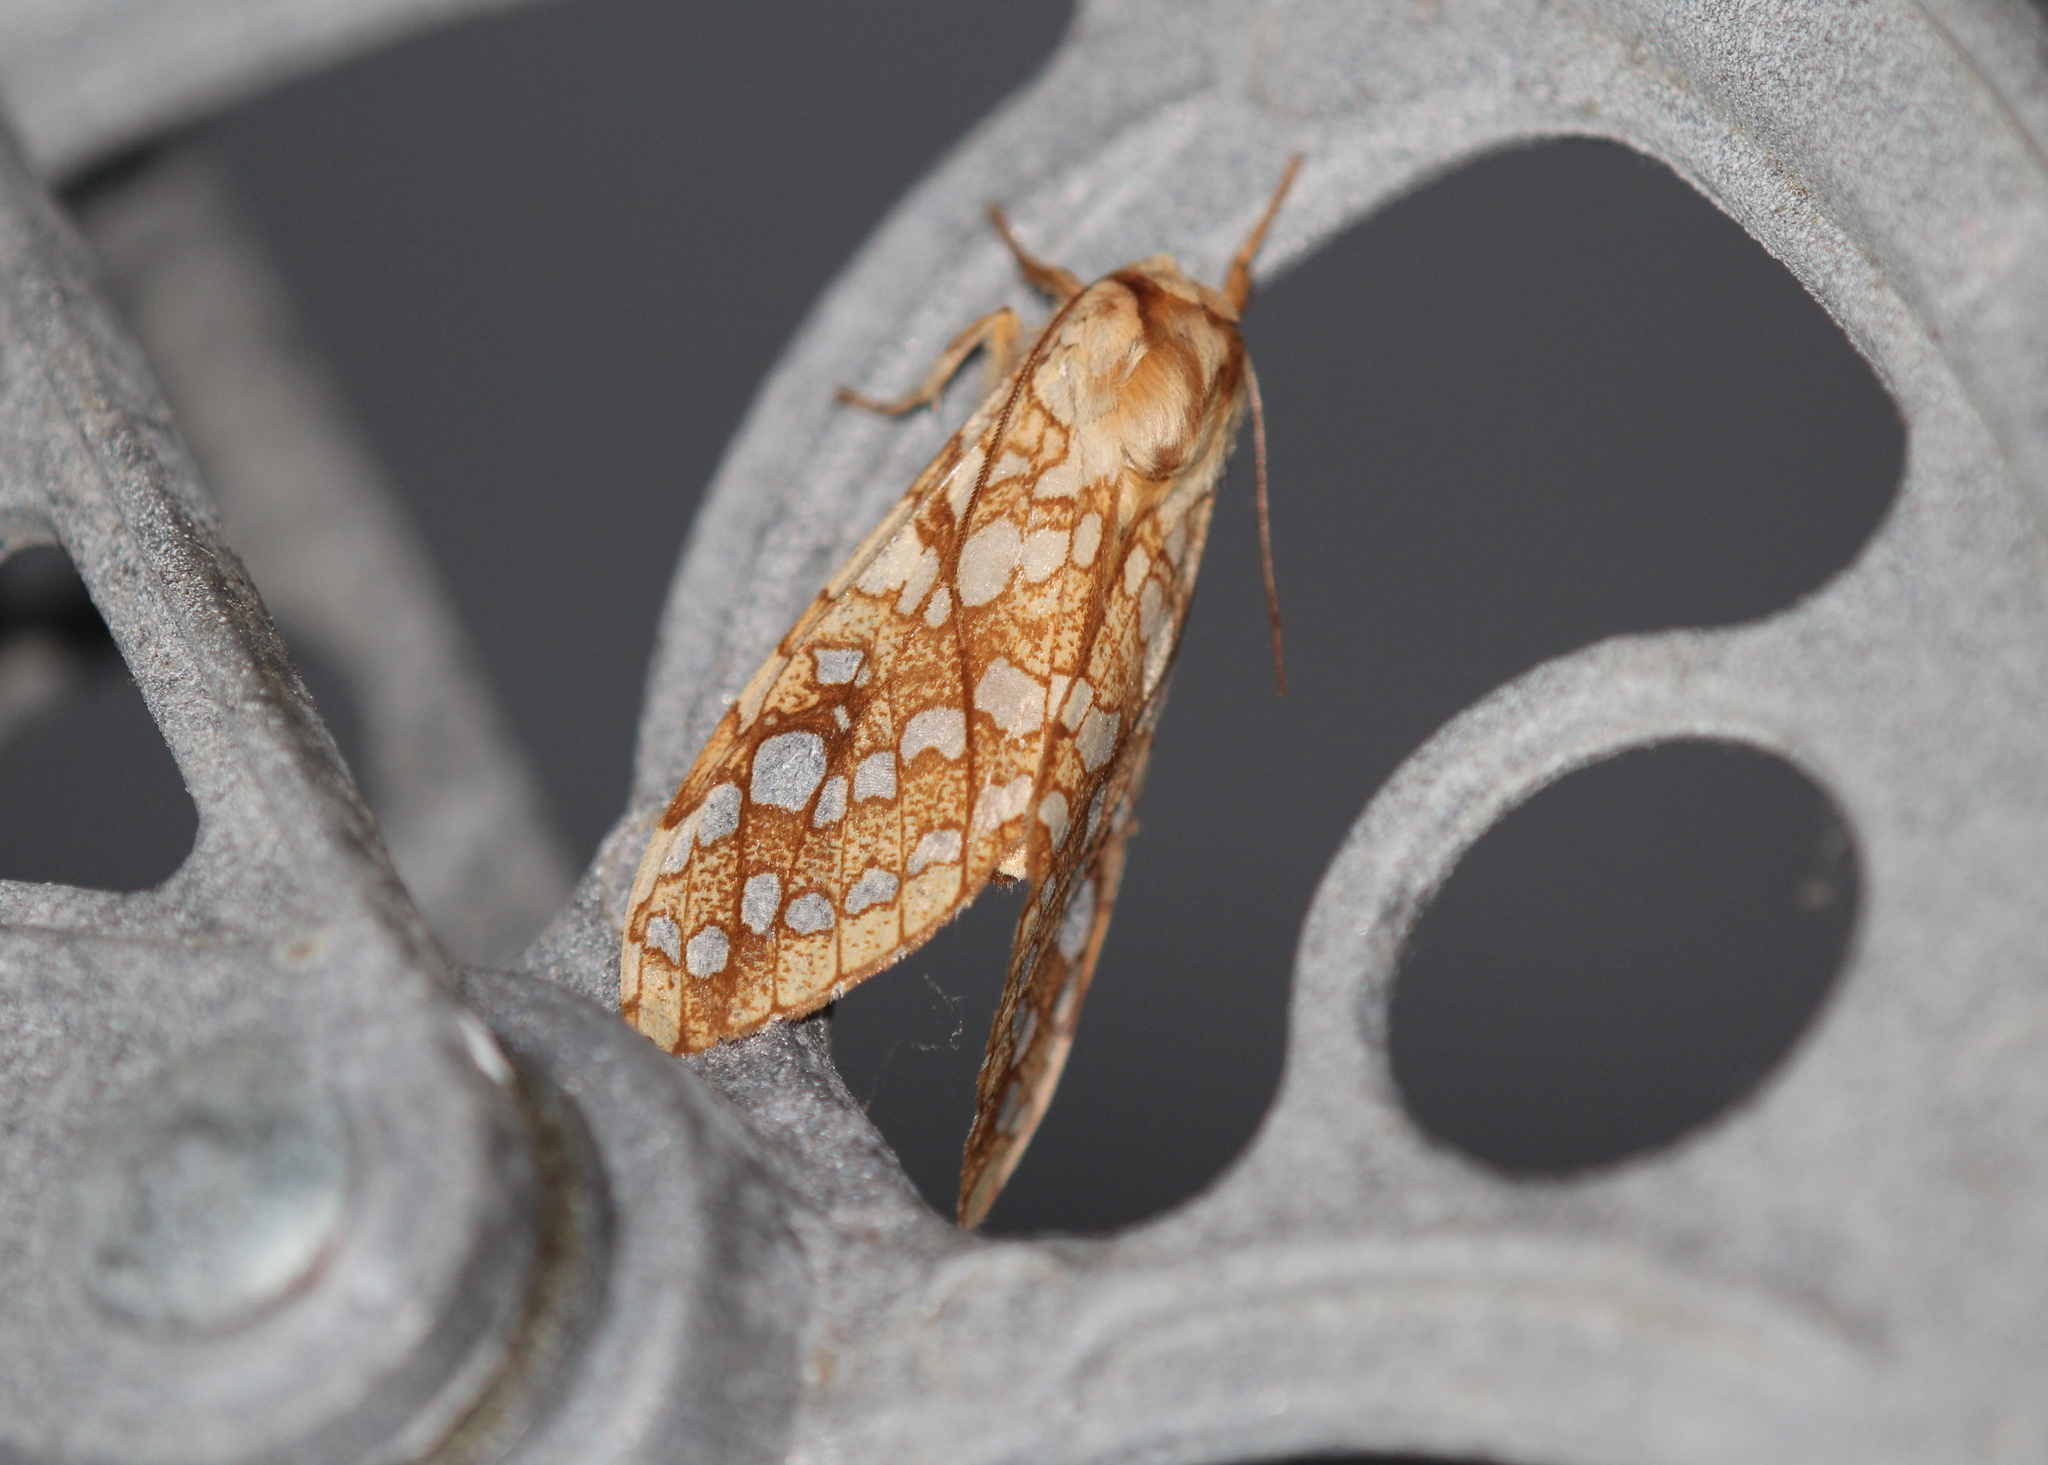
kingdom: Animalia
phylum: Arthropoda
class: Insecta
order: Lepidoptera
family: Erebidae
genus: Lophocampa
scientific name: Lophocampa caryae
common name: Hickory tussock moth
